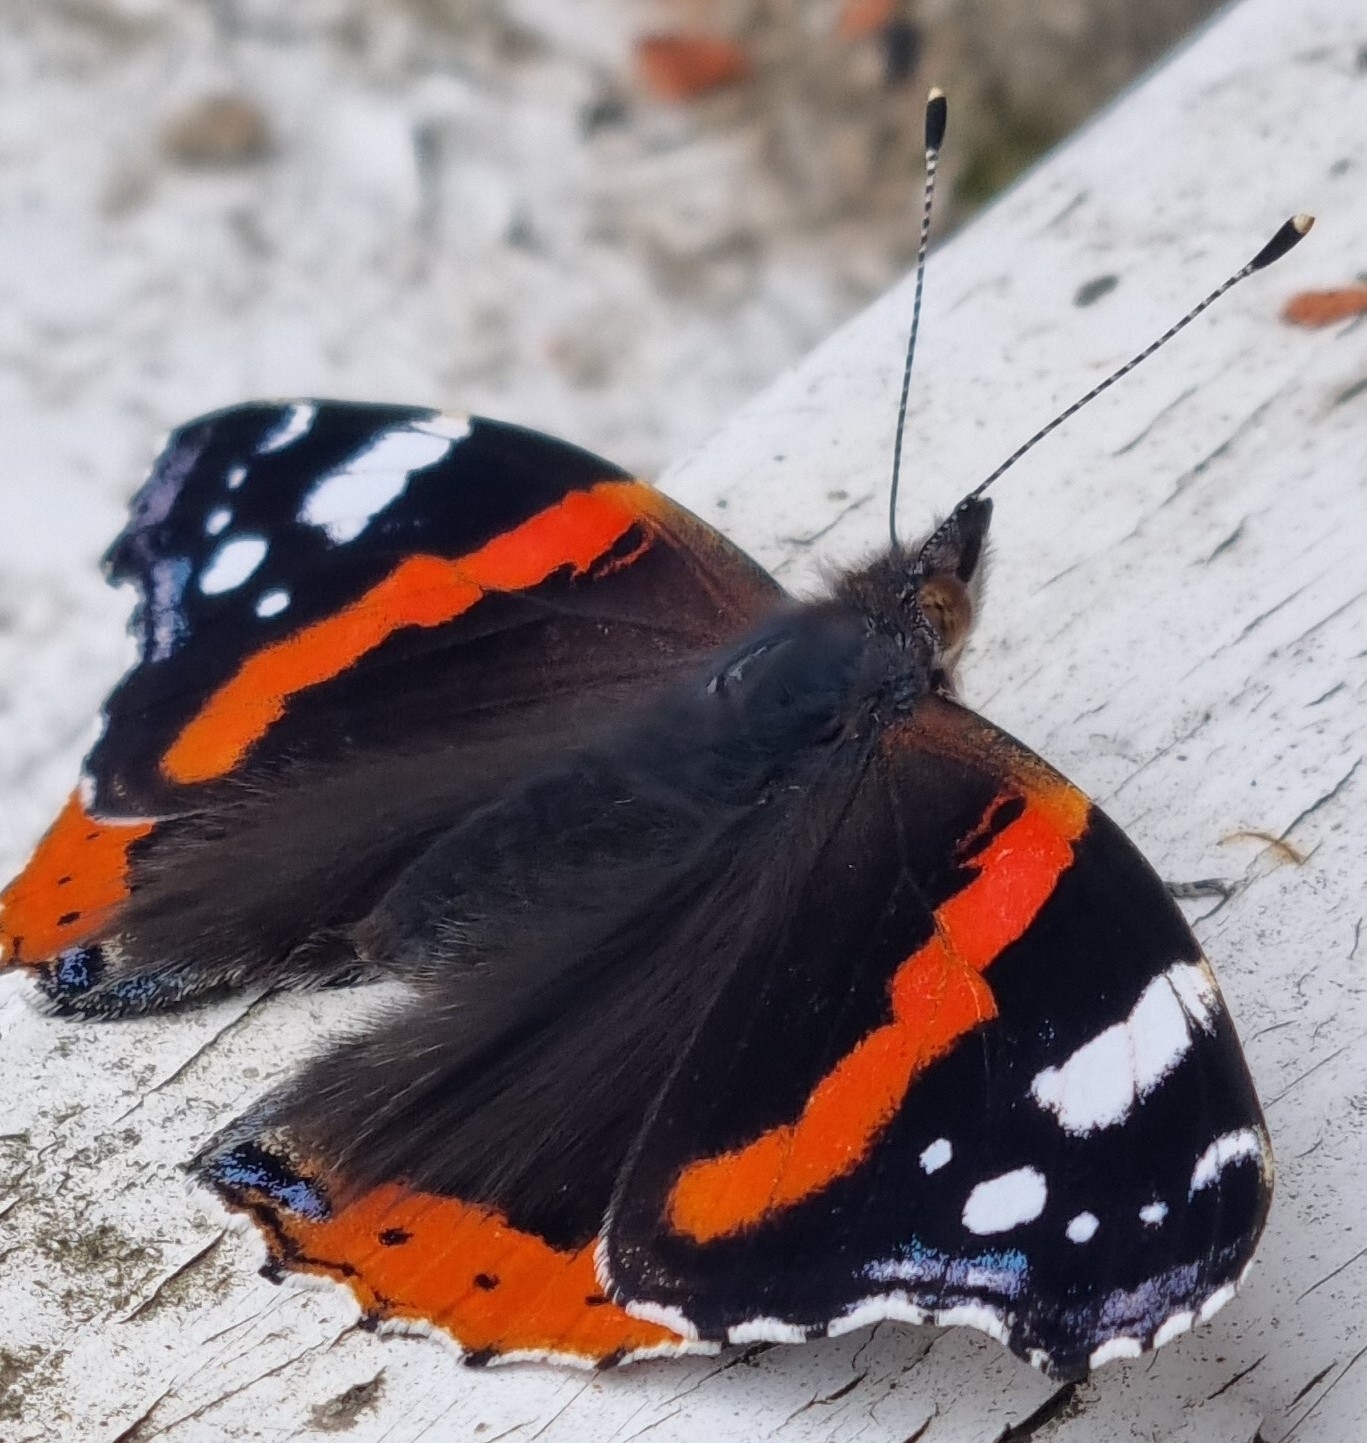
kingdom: Animalia
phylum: Arthropoda
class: Insecta
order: Lepidoptera
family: Nymphalidae
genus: Vanessa
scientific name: Vanessa atalanta
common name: Red admiral
